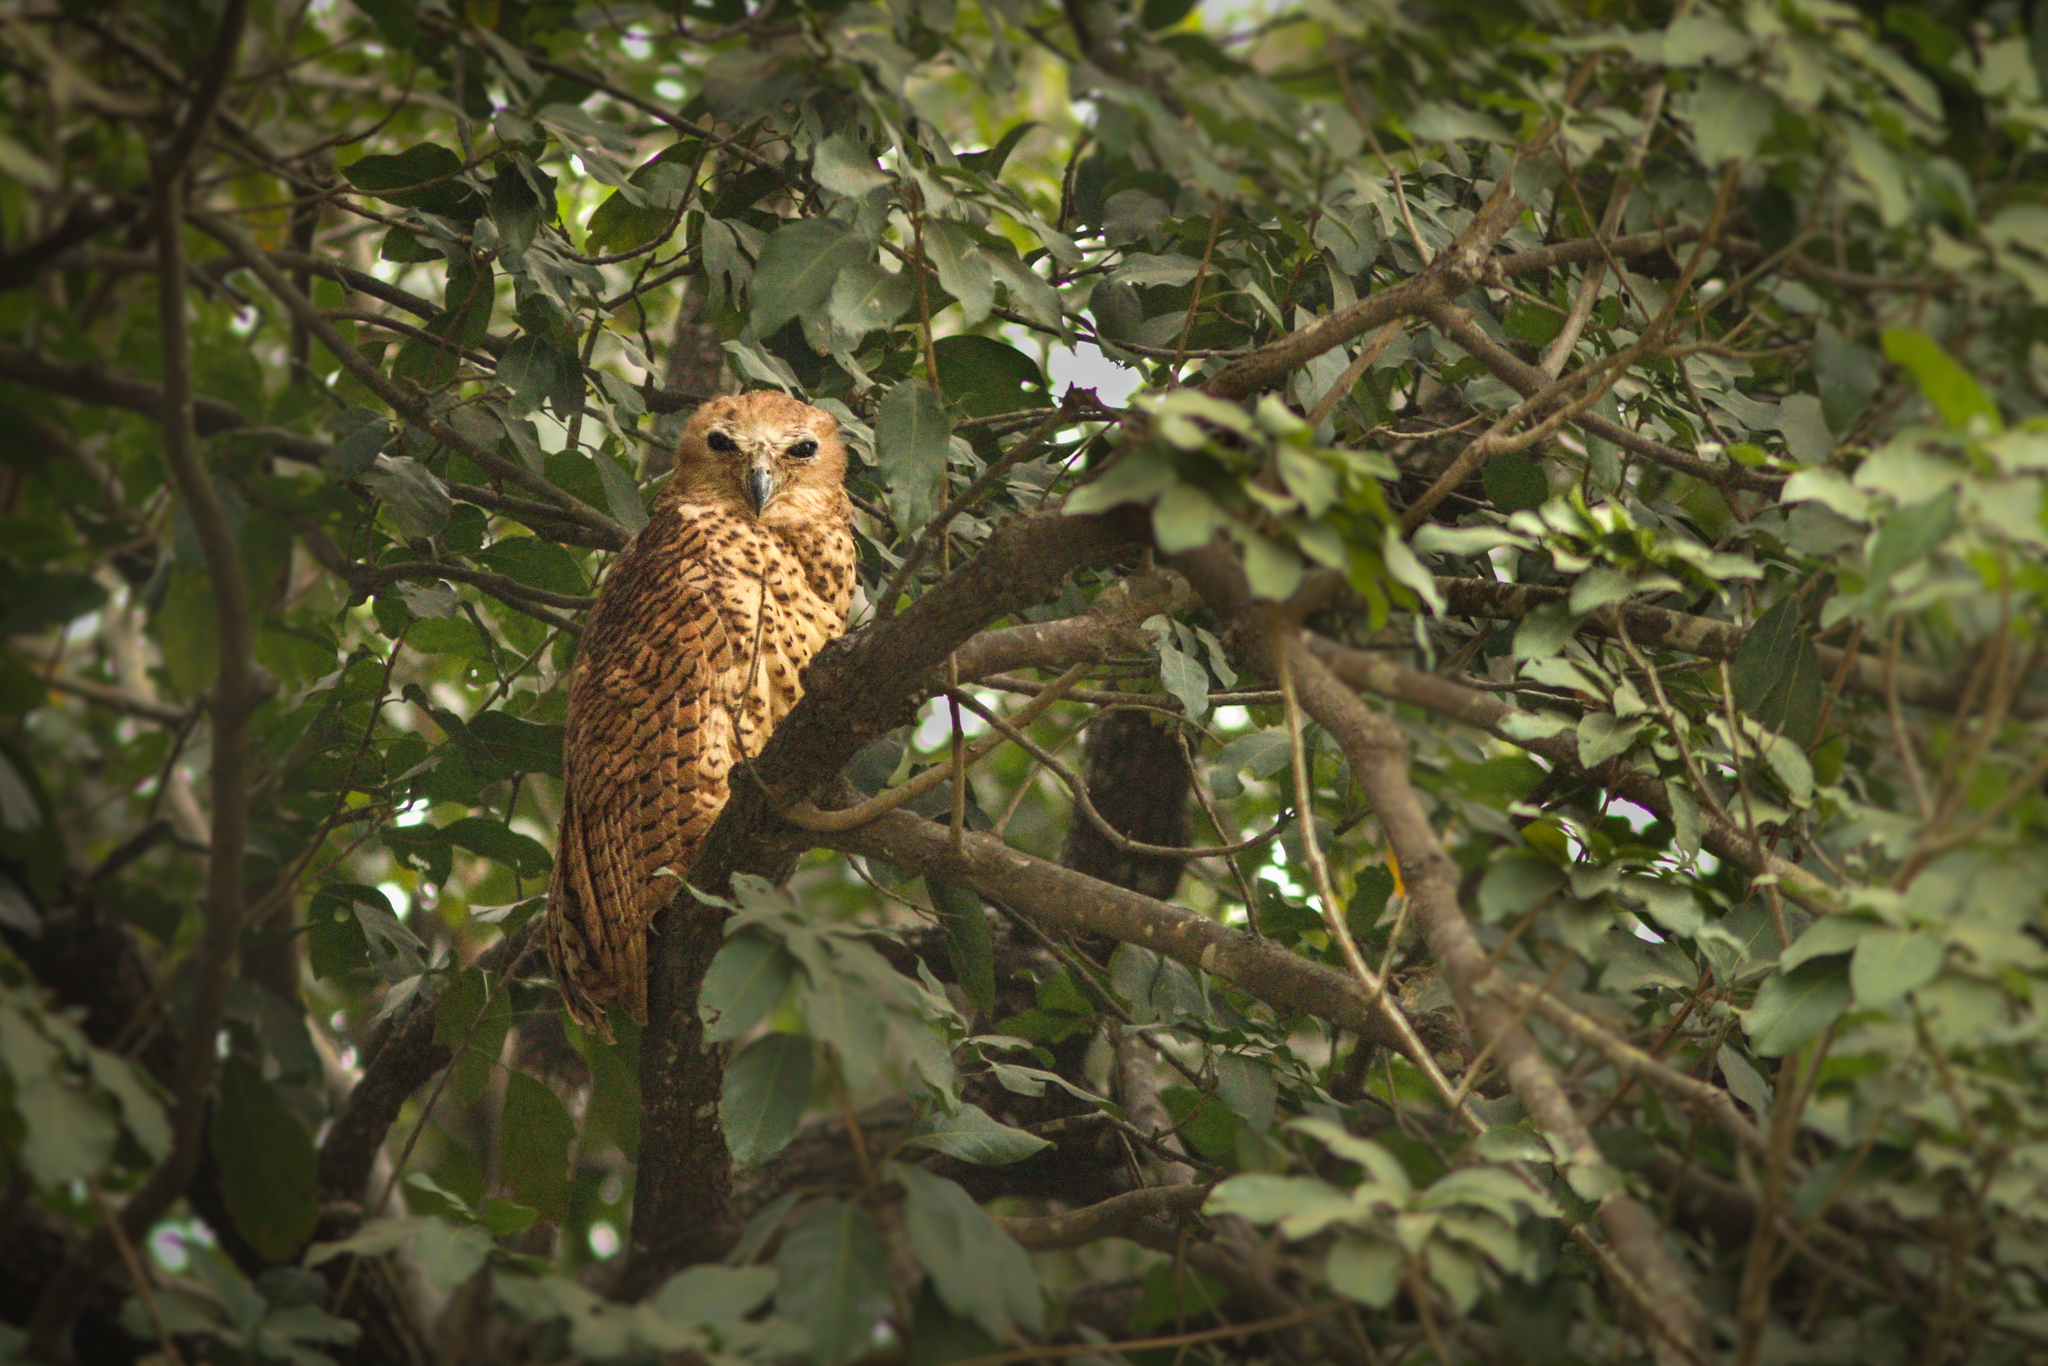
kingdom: Animalia
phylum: Chordata
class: Aves
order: Strigiformes
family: Strigidae
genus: Scotopelia
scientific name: Scotopelia peli
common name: Pel's fishing owl
